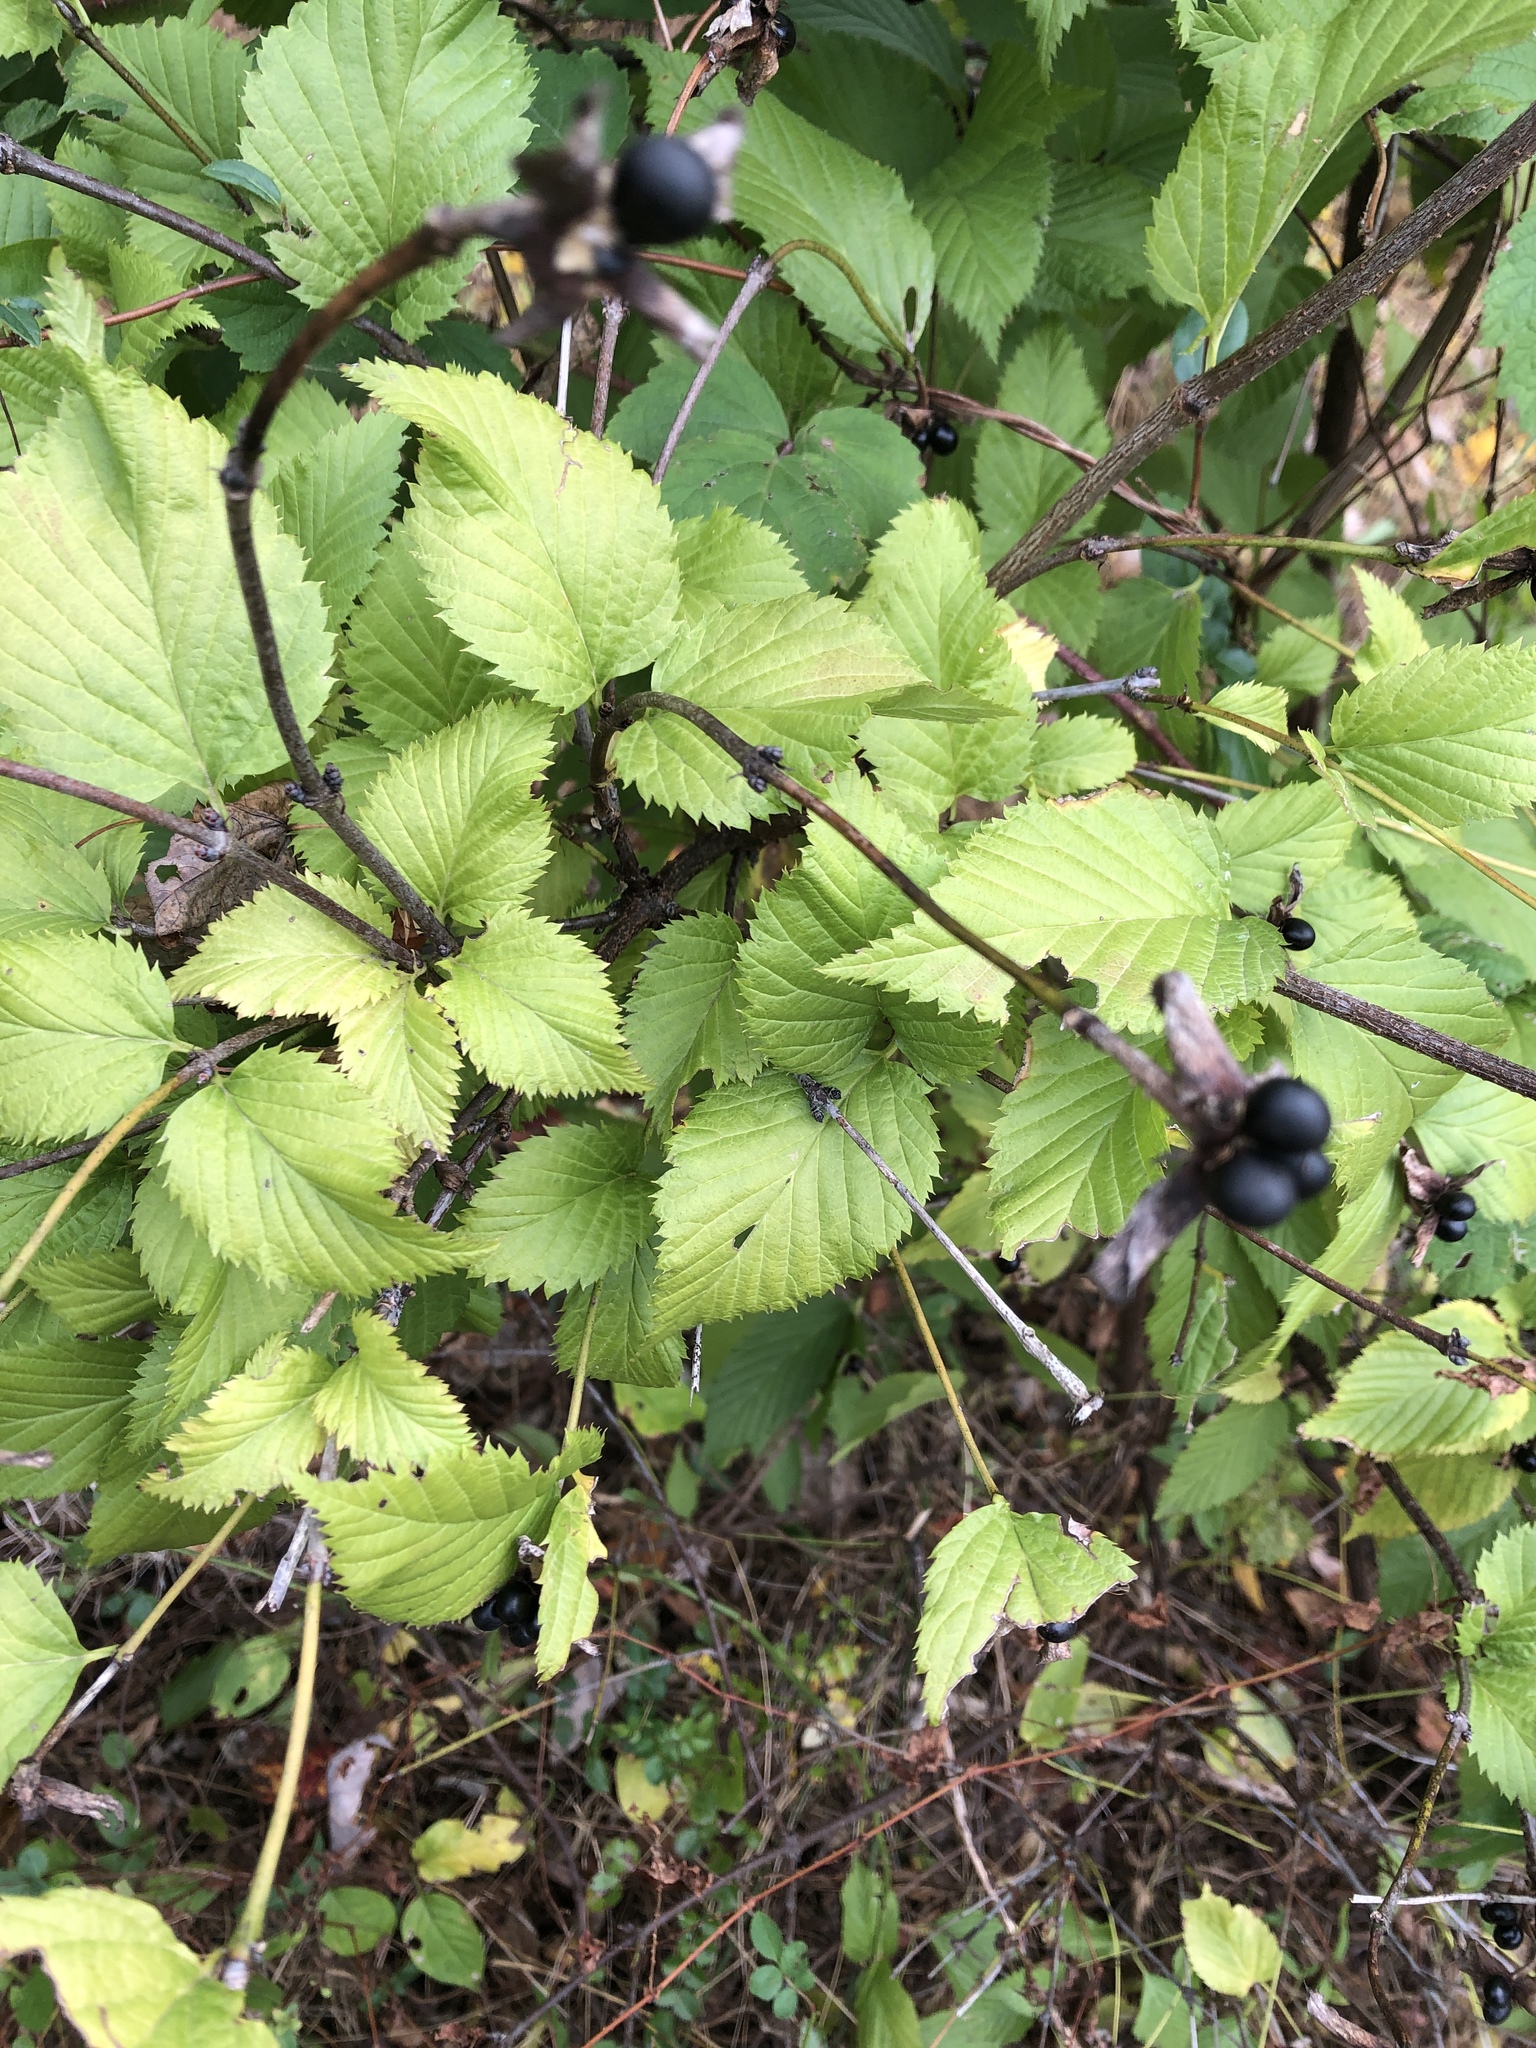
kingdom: Plantae
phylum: Tracheophyta
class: Magnoliopsida
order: Rosales
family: Rosaceae
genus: Rhodotypos
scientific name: Rhodotypos scandens
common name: Jetbead
